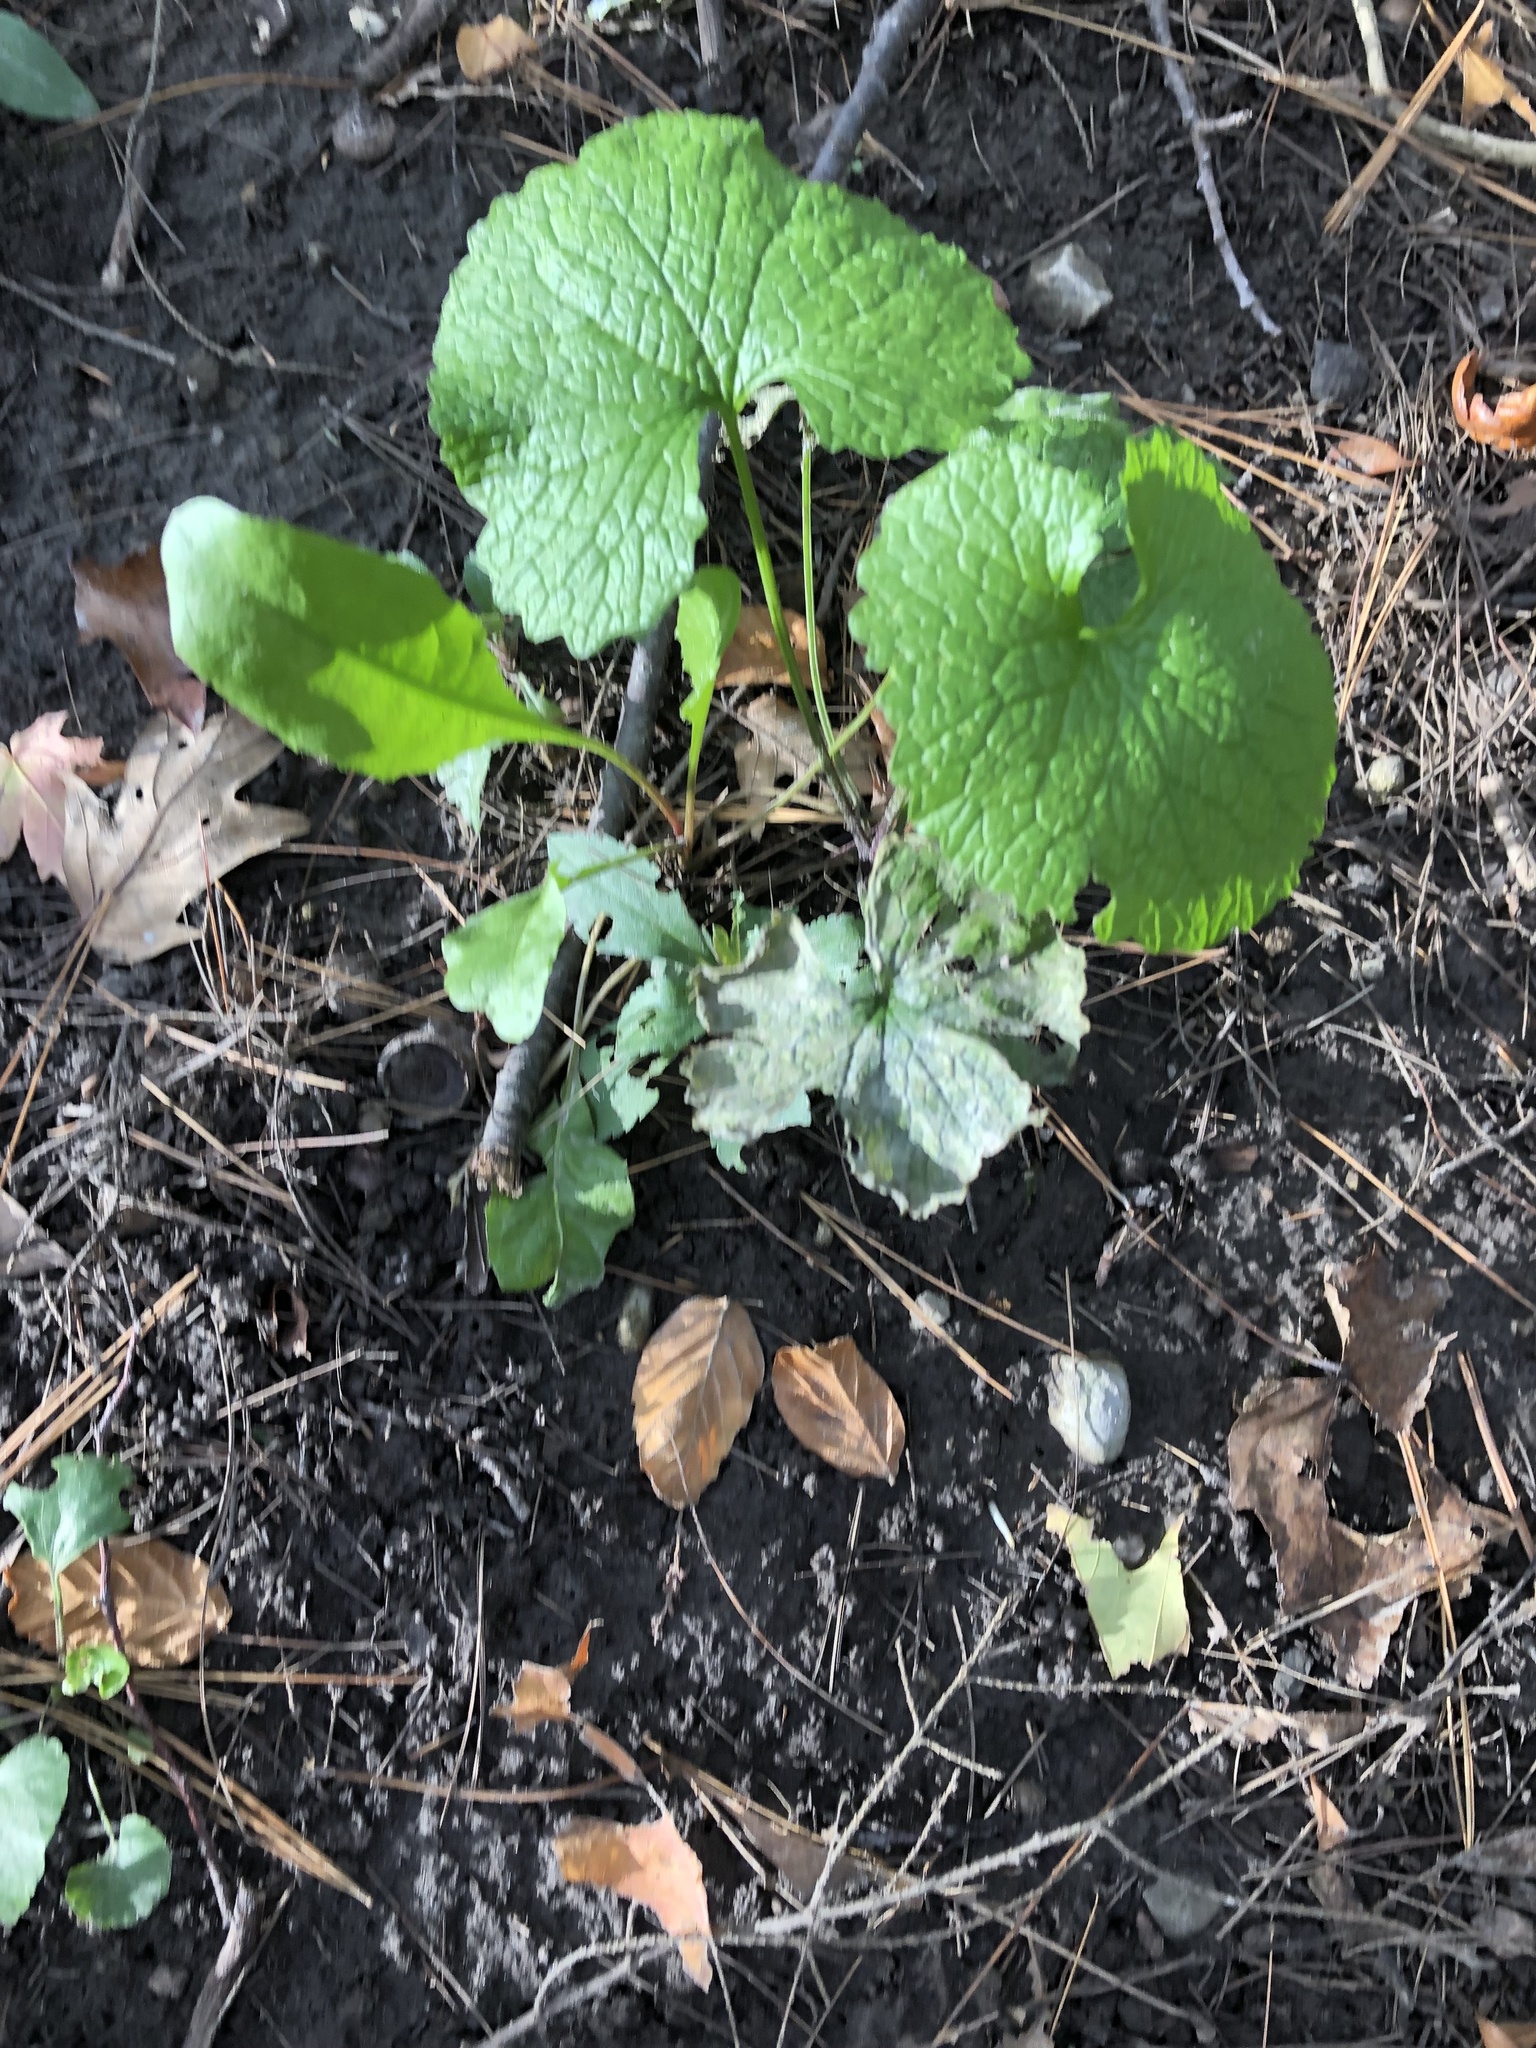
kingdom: Plantae
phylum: Tracheophyta
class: Magnoliopsida
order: Brassicales
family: Brassicaceae
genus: Alliaria
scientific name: Alliaria petiolata
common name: Garlic mustard
